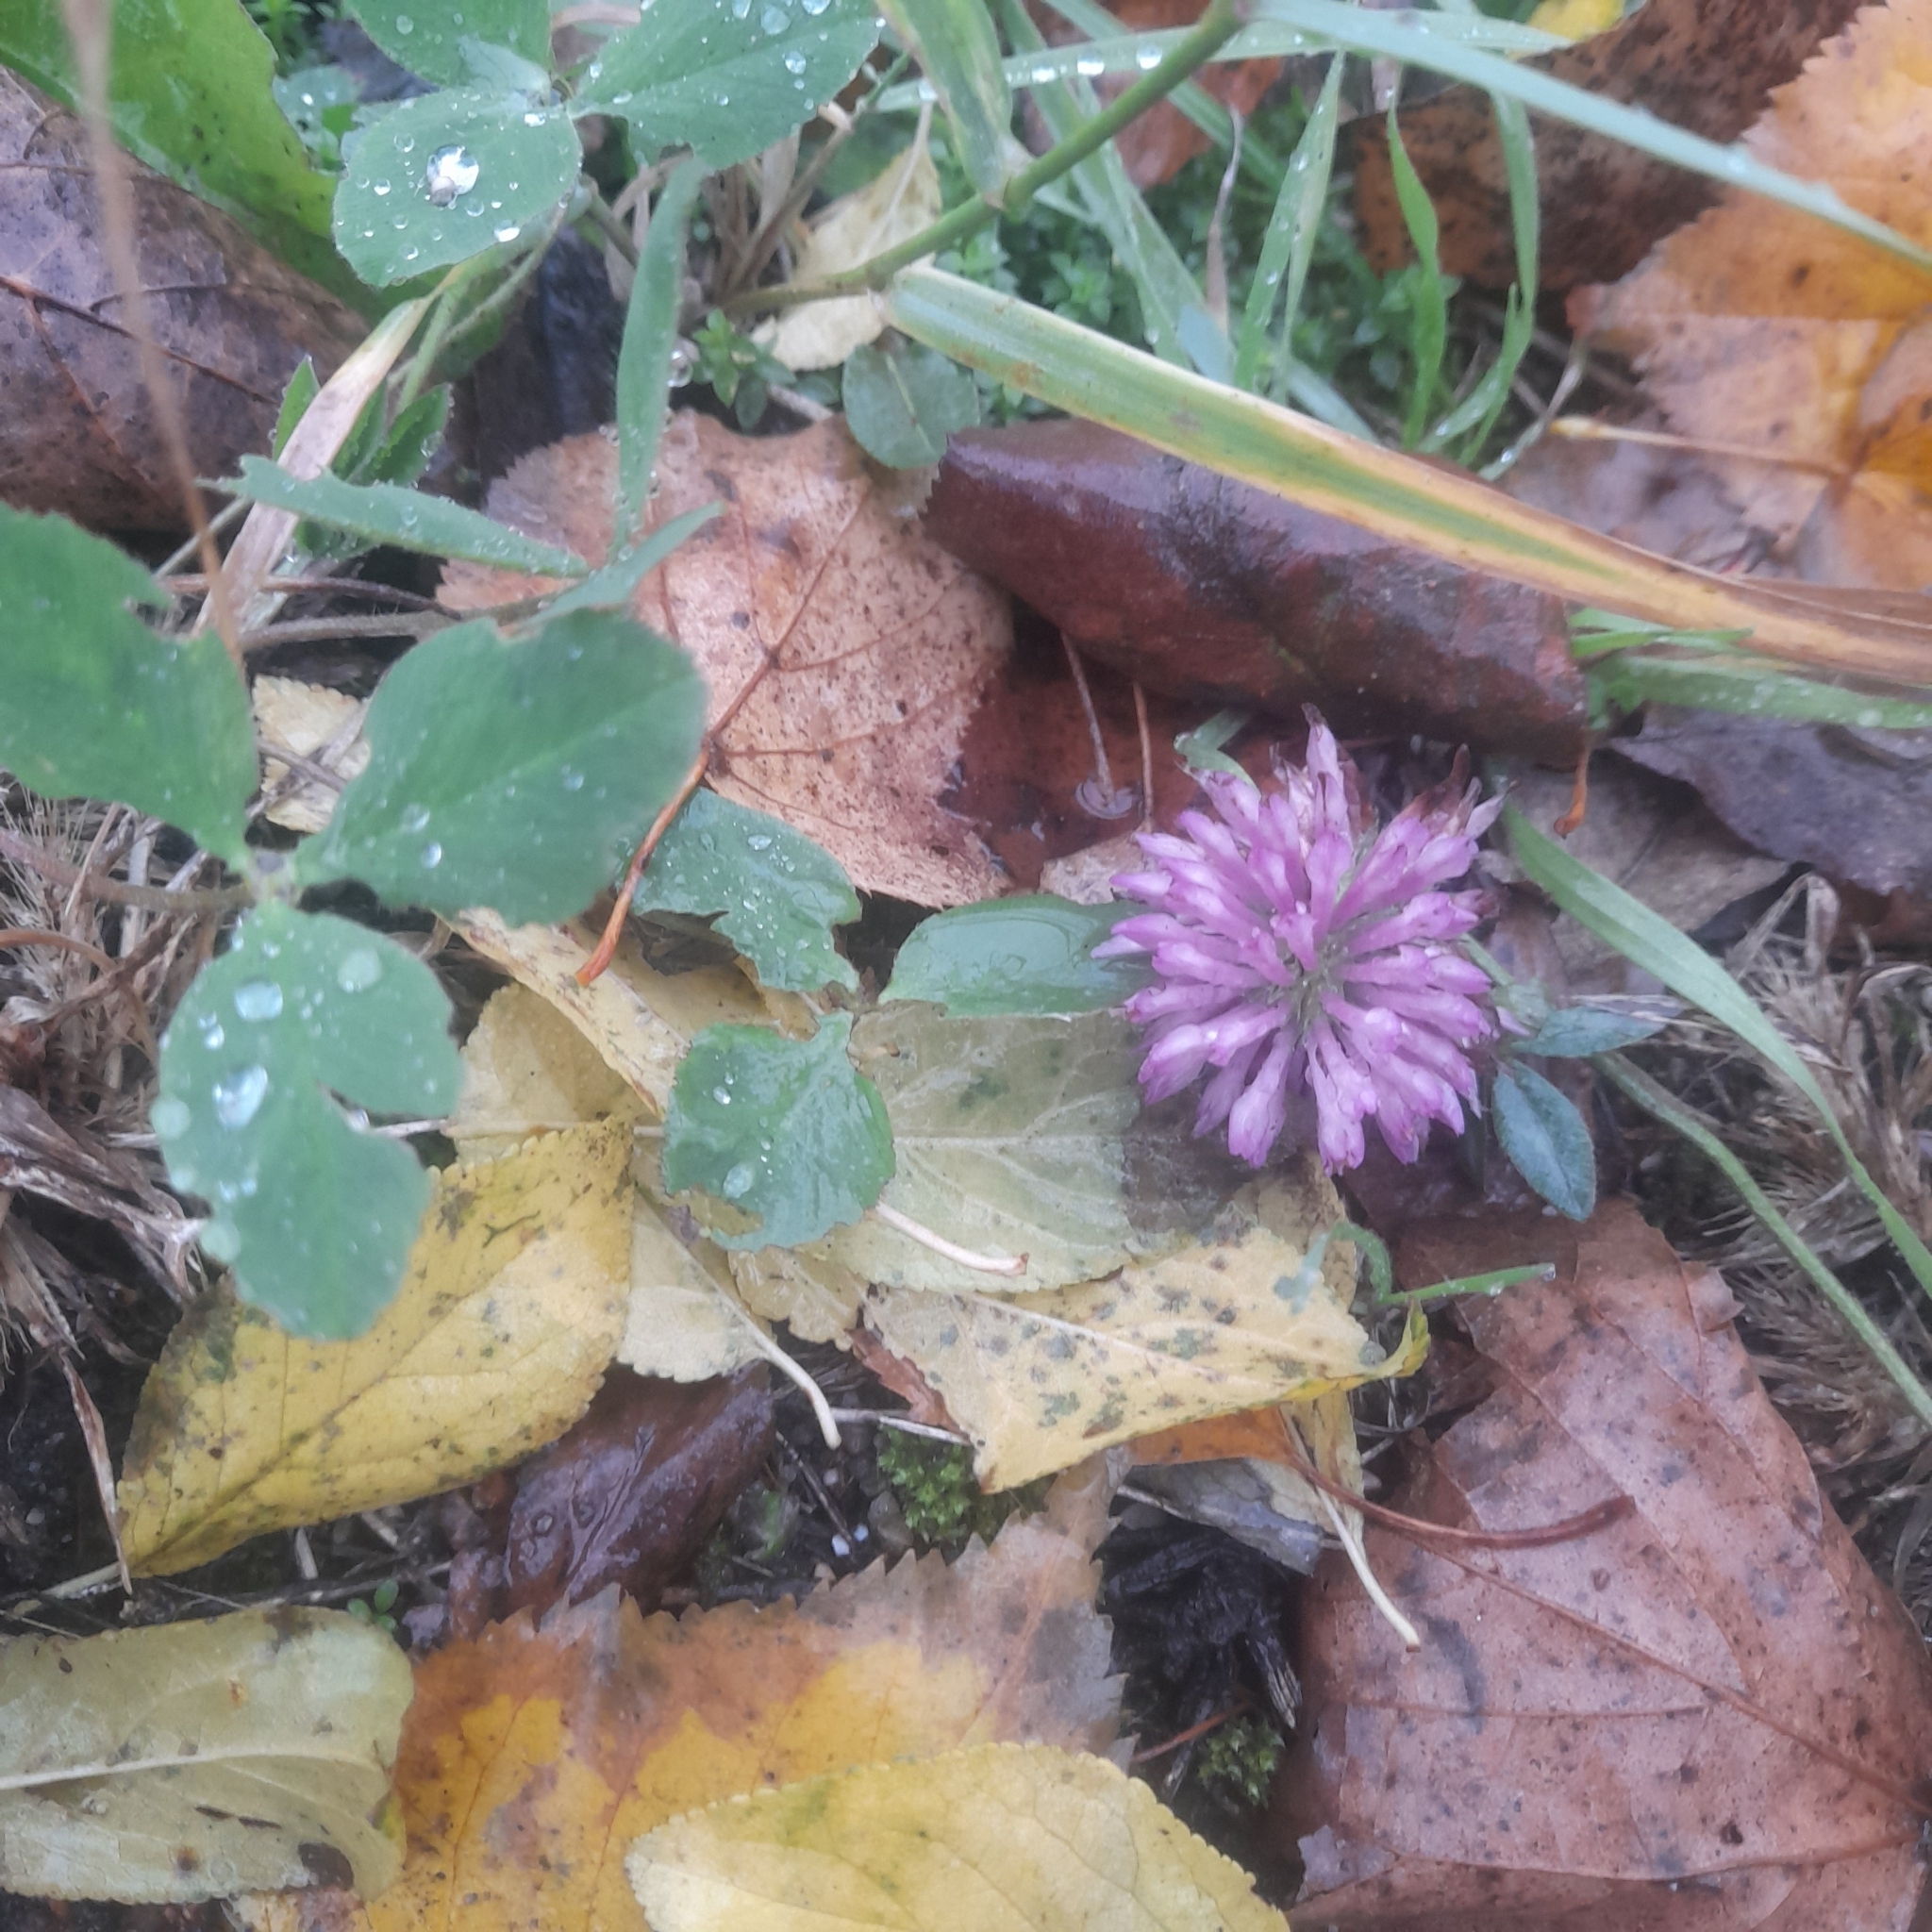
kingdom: Plantae
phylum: Tracheophyta
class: Magnoliopsida
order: Fabales
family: Fabaceae
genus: Trifolium
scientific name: Trifolium pratense
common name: Red clover
